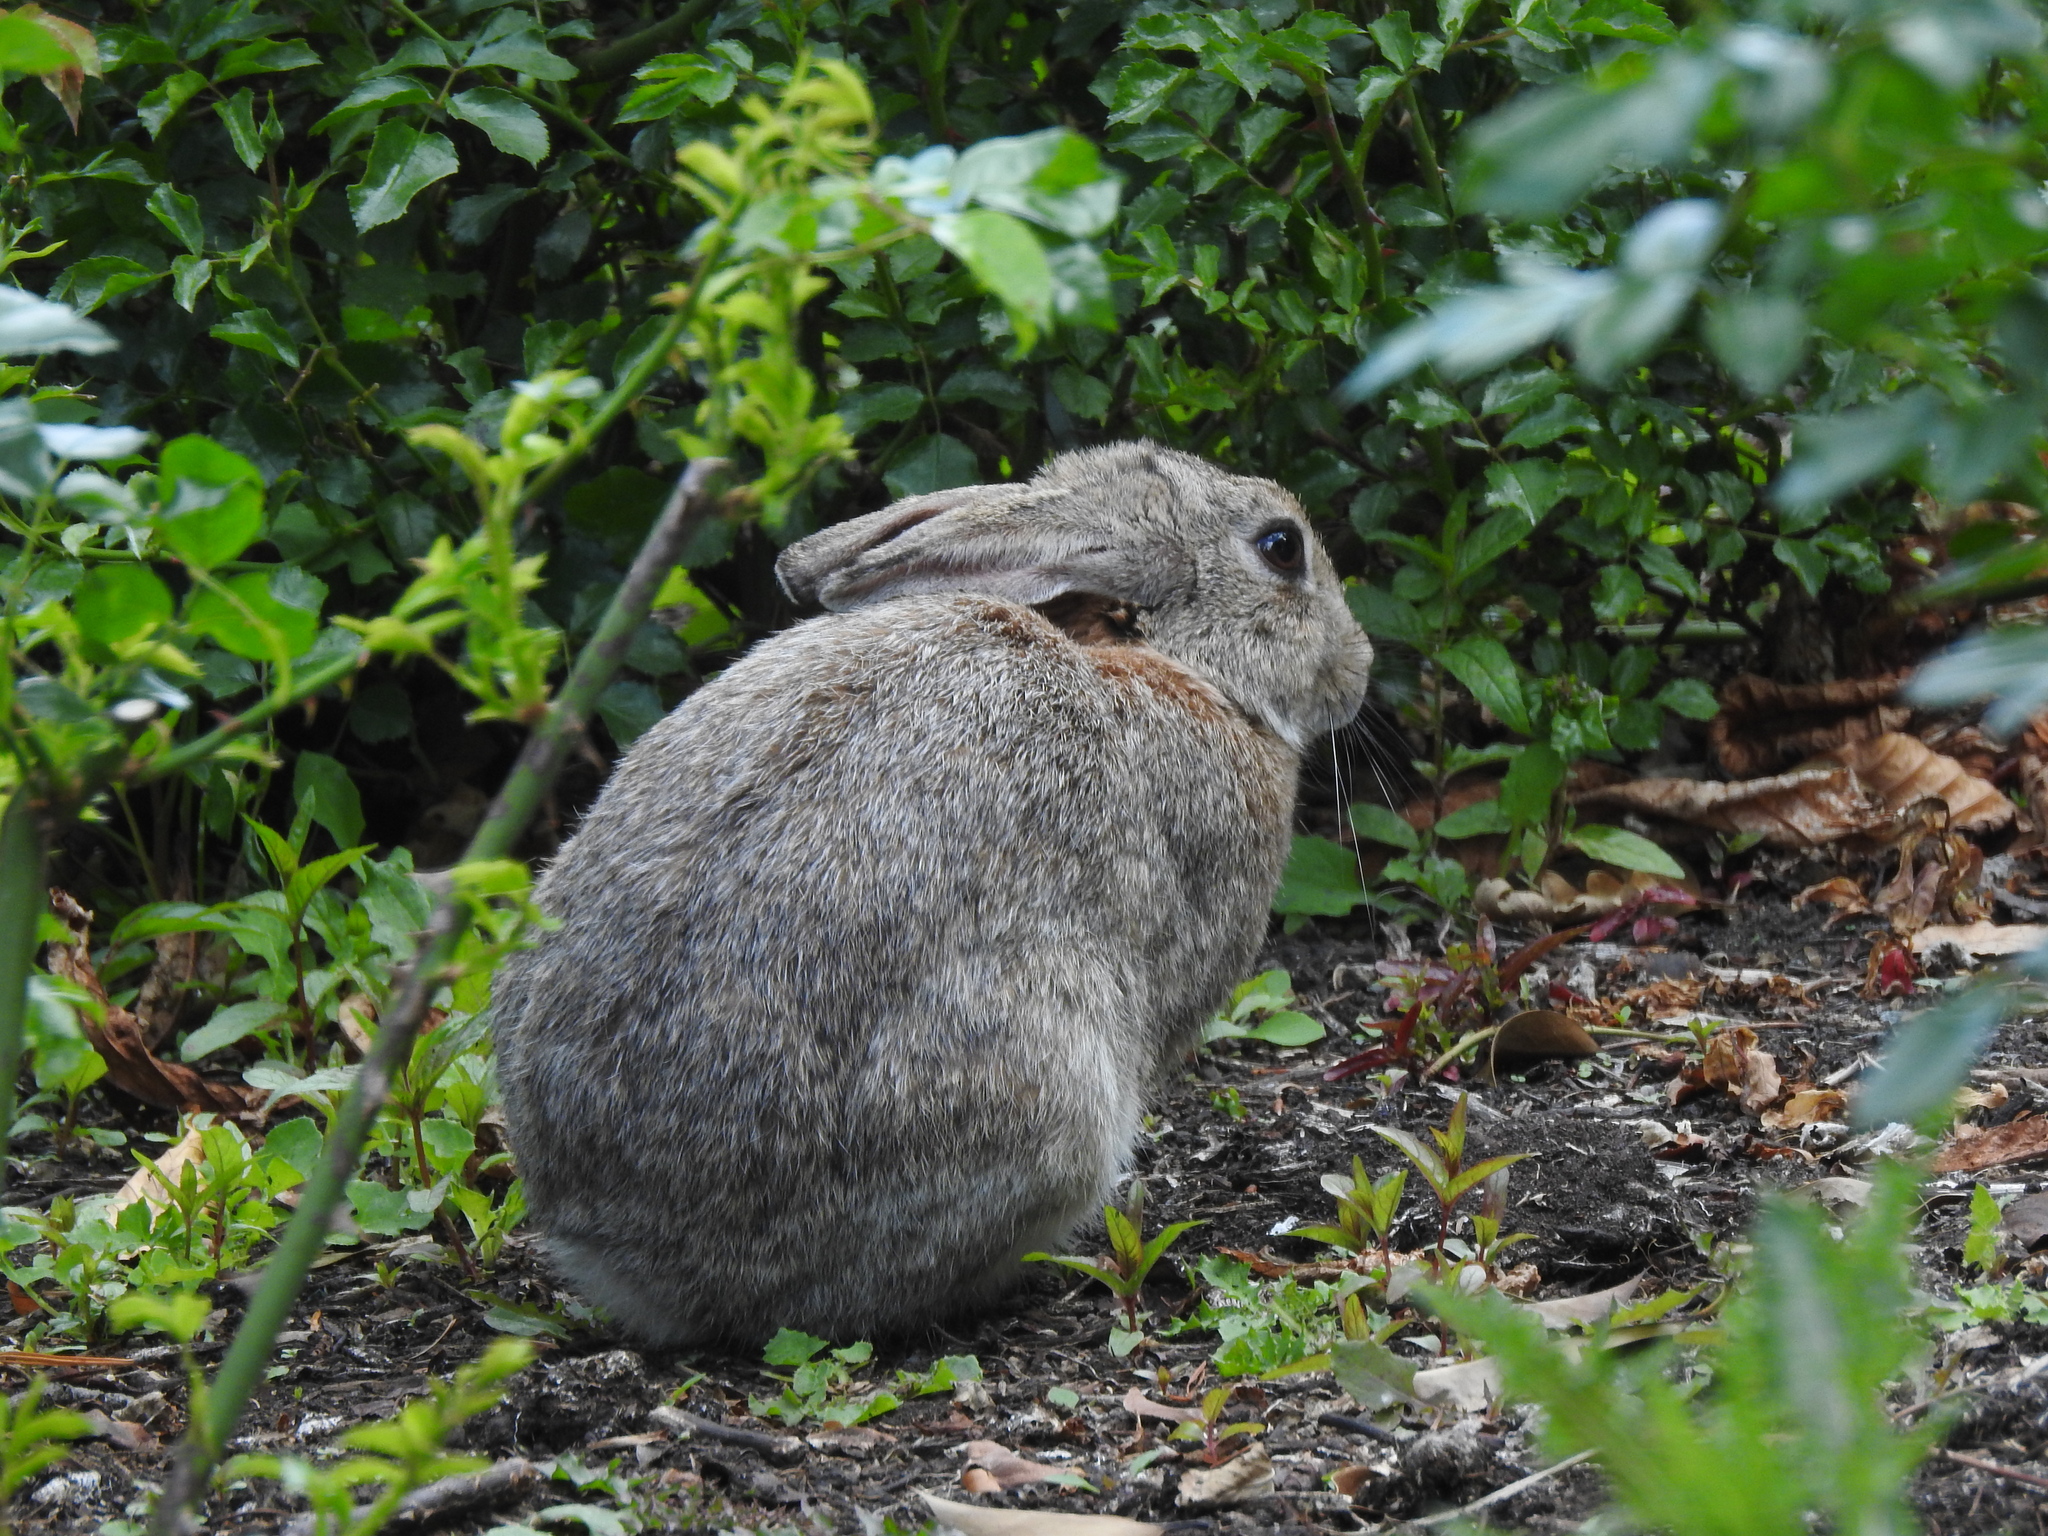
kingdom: Animalia
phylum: Chordata
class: Mammalia
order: Lagomorpha
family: Leporidae
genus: Oryctolagus
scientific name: Oryctolagus cuniculus
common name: European rabbit
